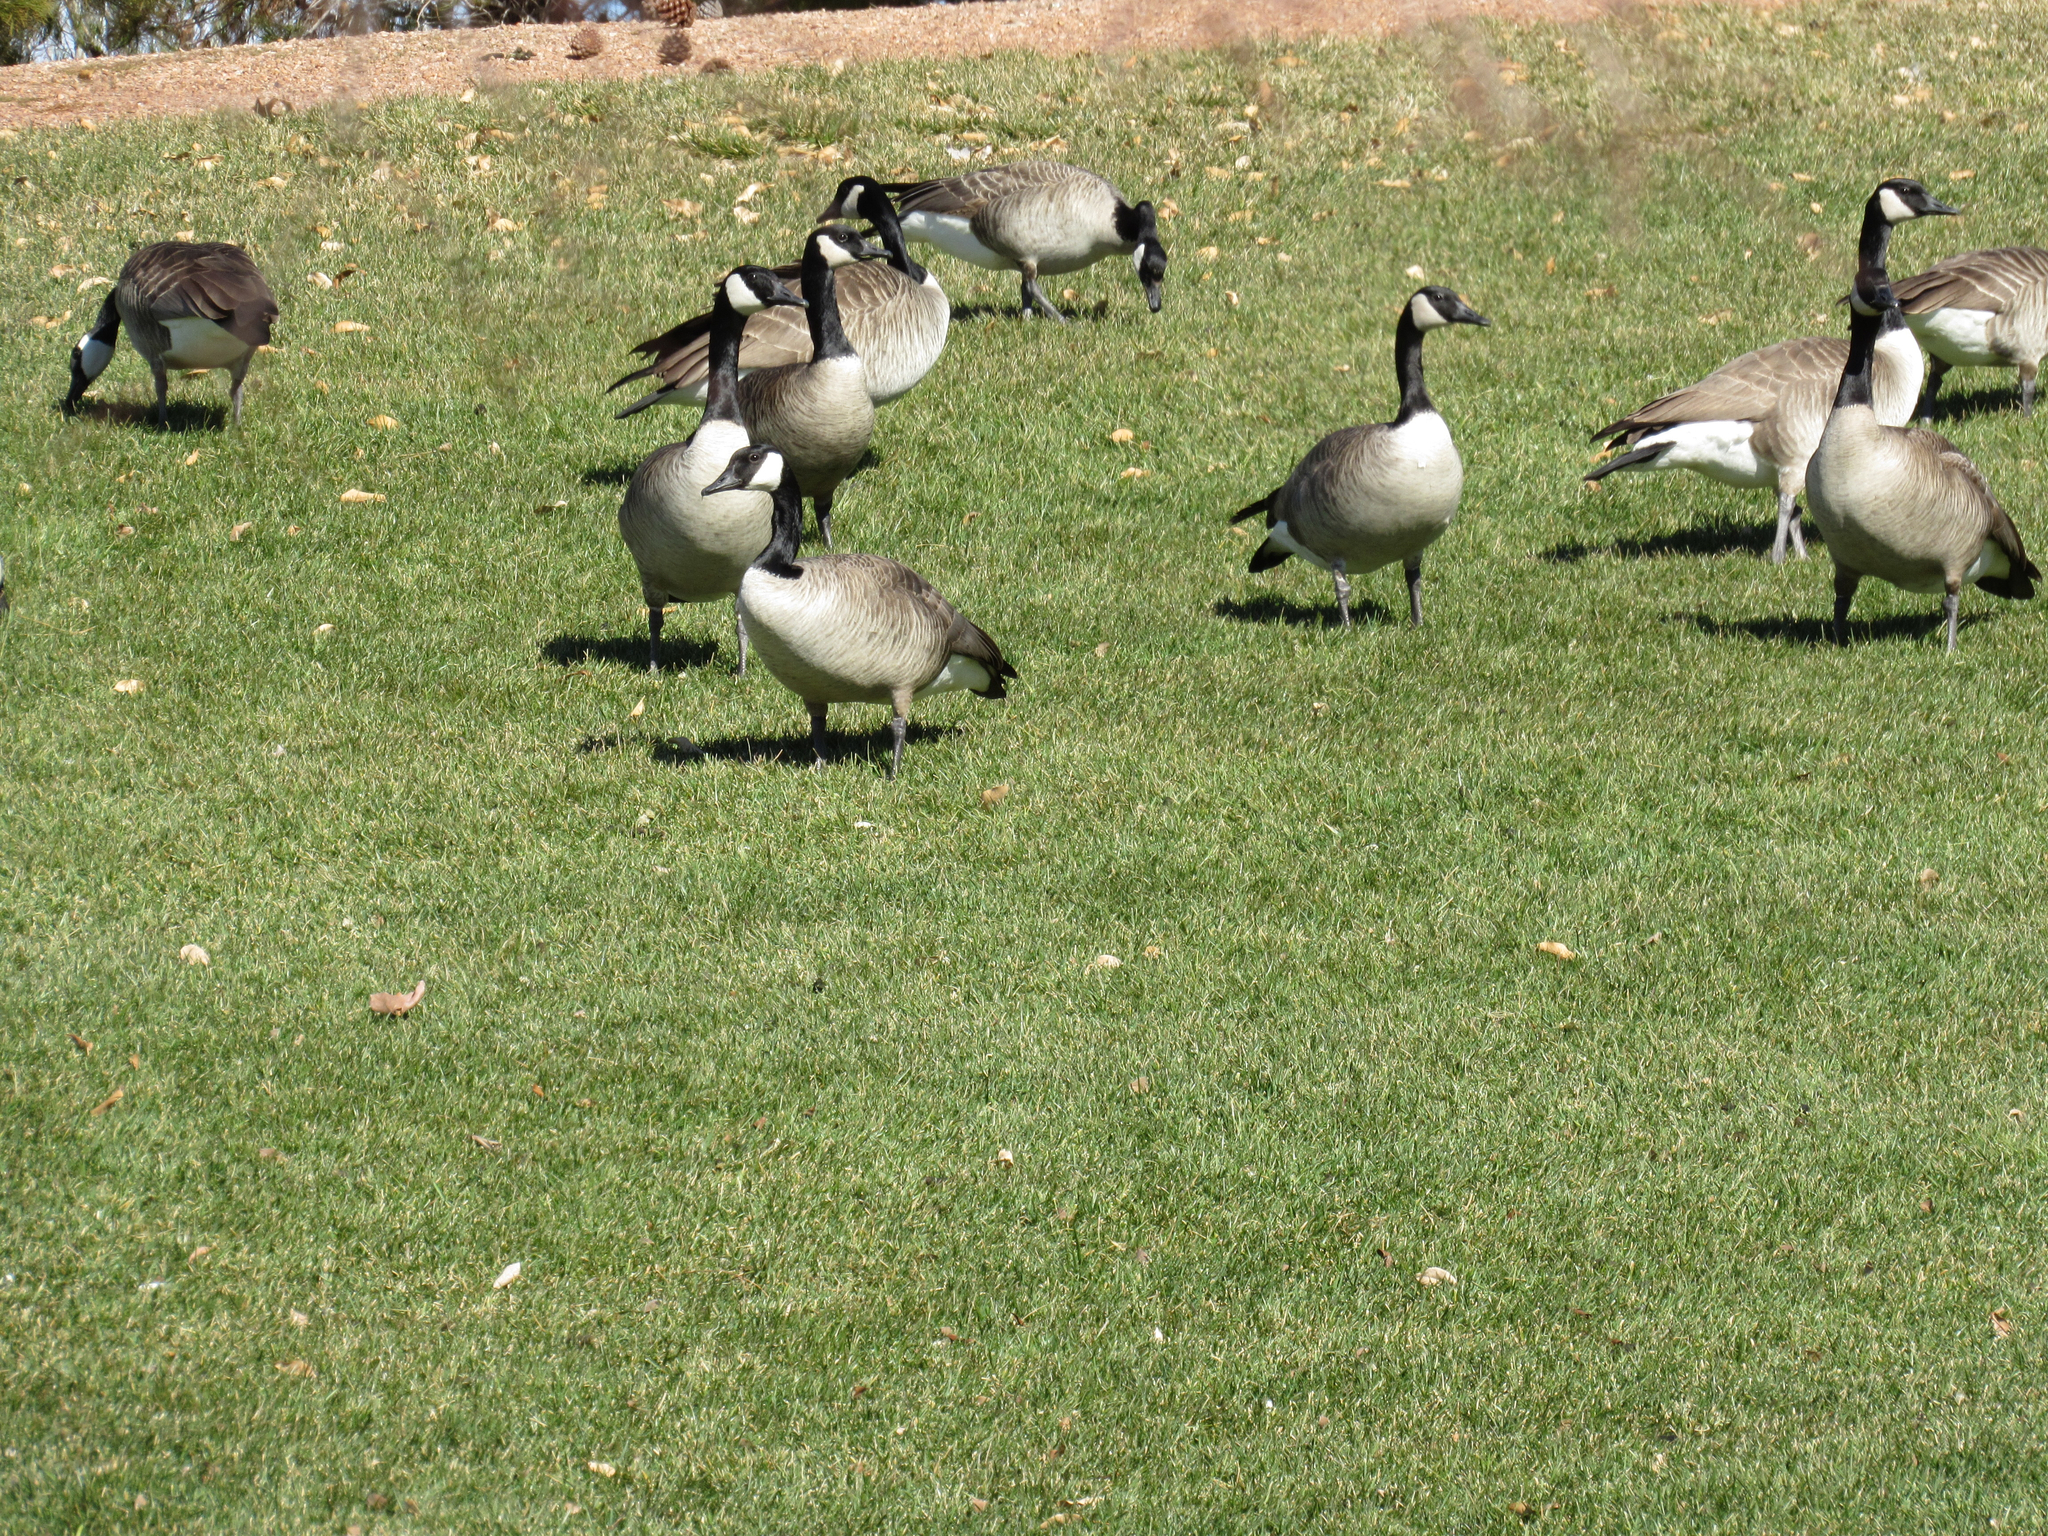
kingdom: Animalia
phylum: Chordata
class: Aves
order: Anseriformes
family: Anatidae
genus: Branta
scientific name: Branta canadensis
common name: Canada goose
